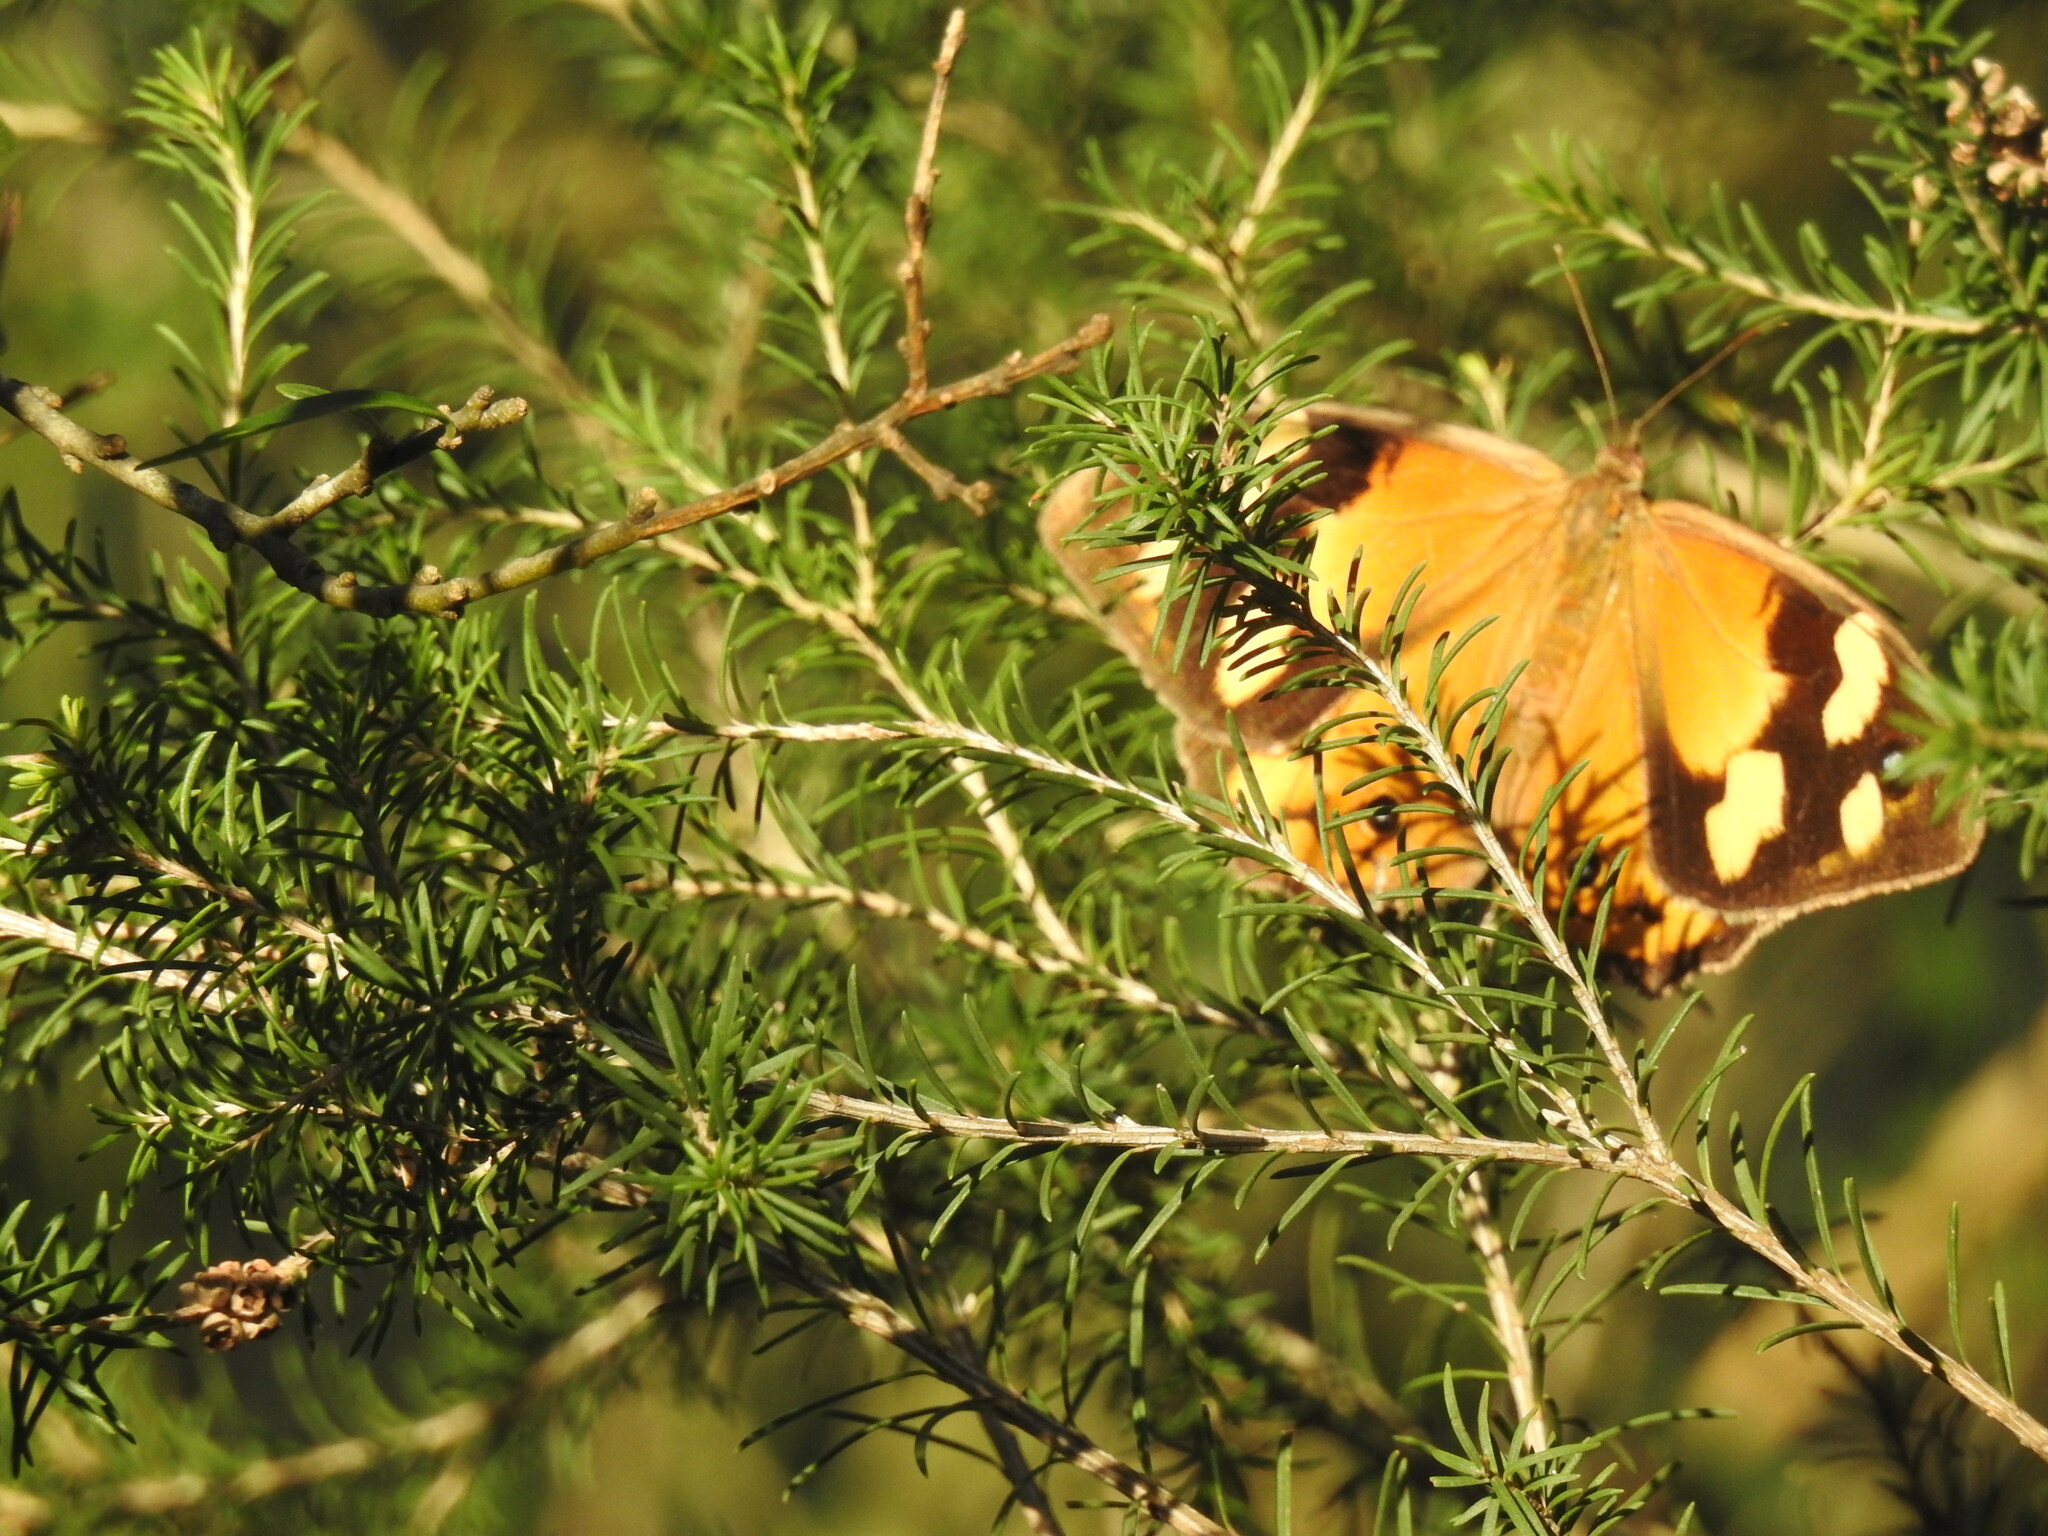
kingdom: Animalia
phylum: Arthropoda
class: Insecta
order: Lepidoptera
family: Nymphalidae
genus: Heteronympha
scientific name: Heteronympha merope
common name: Common brown
